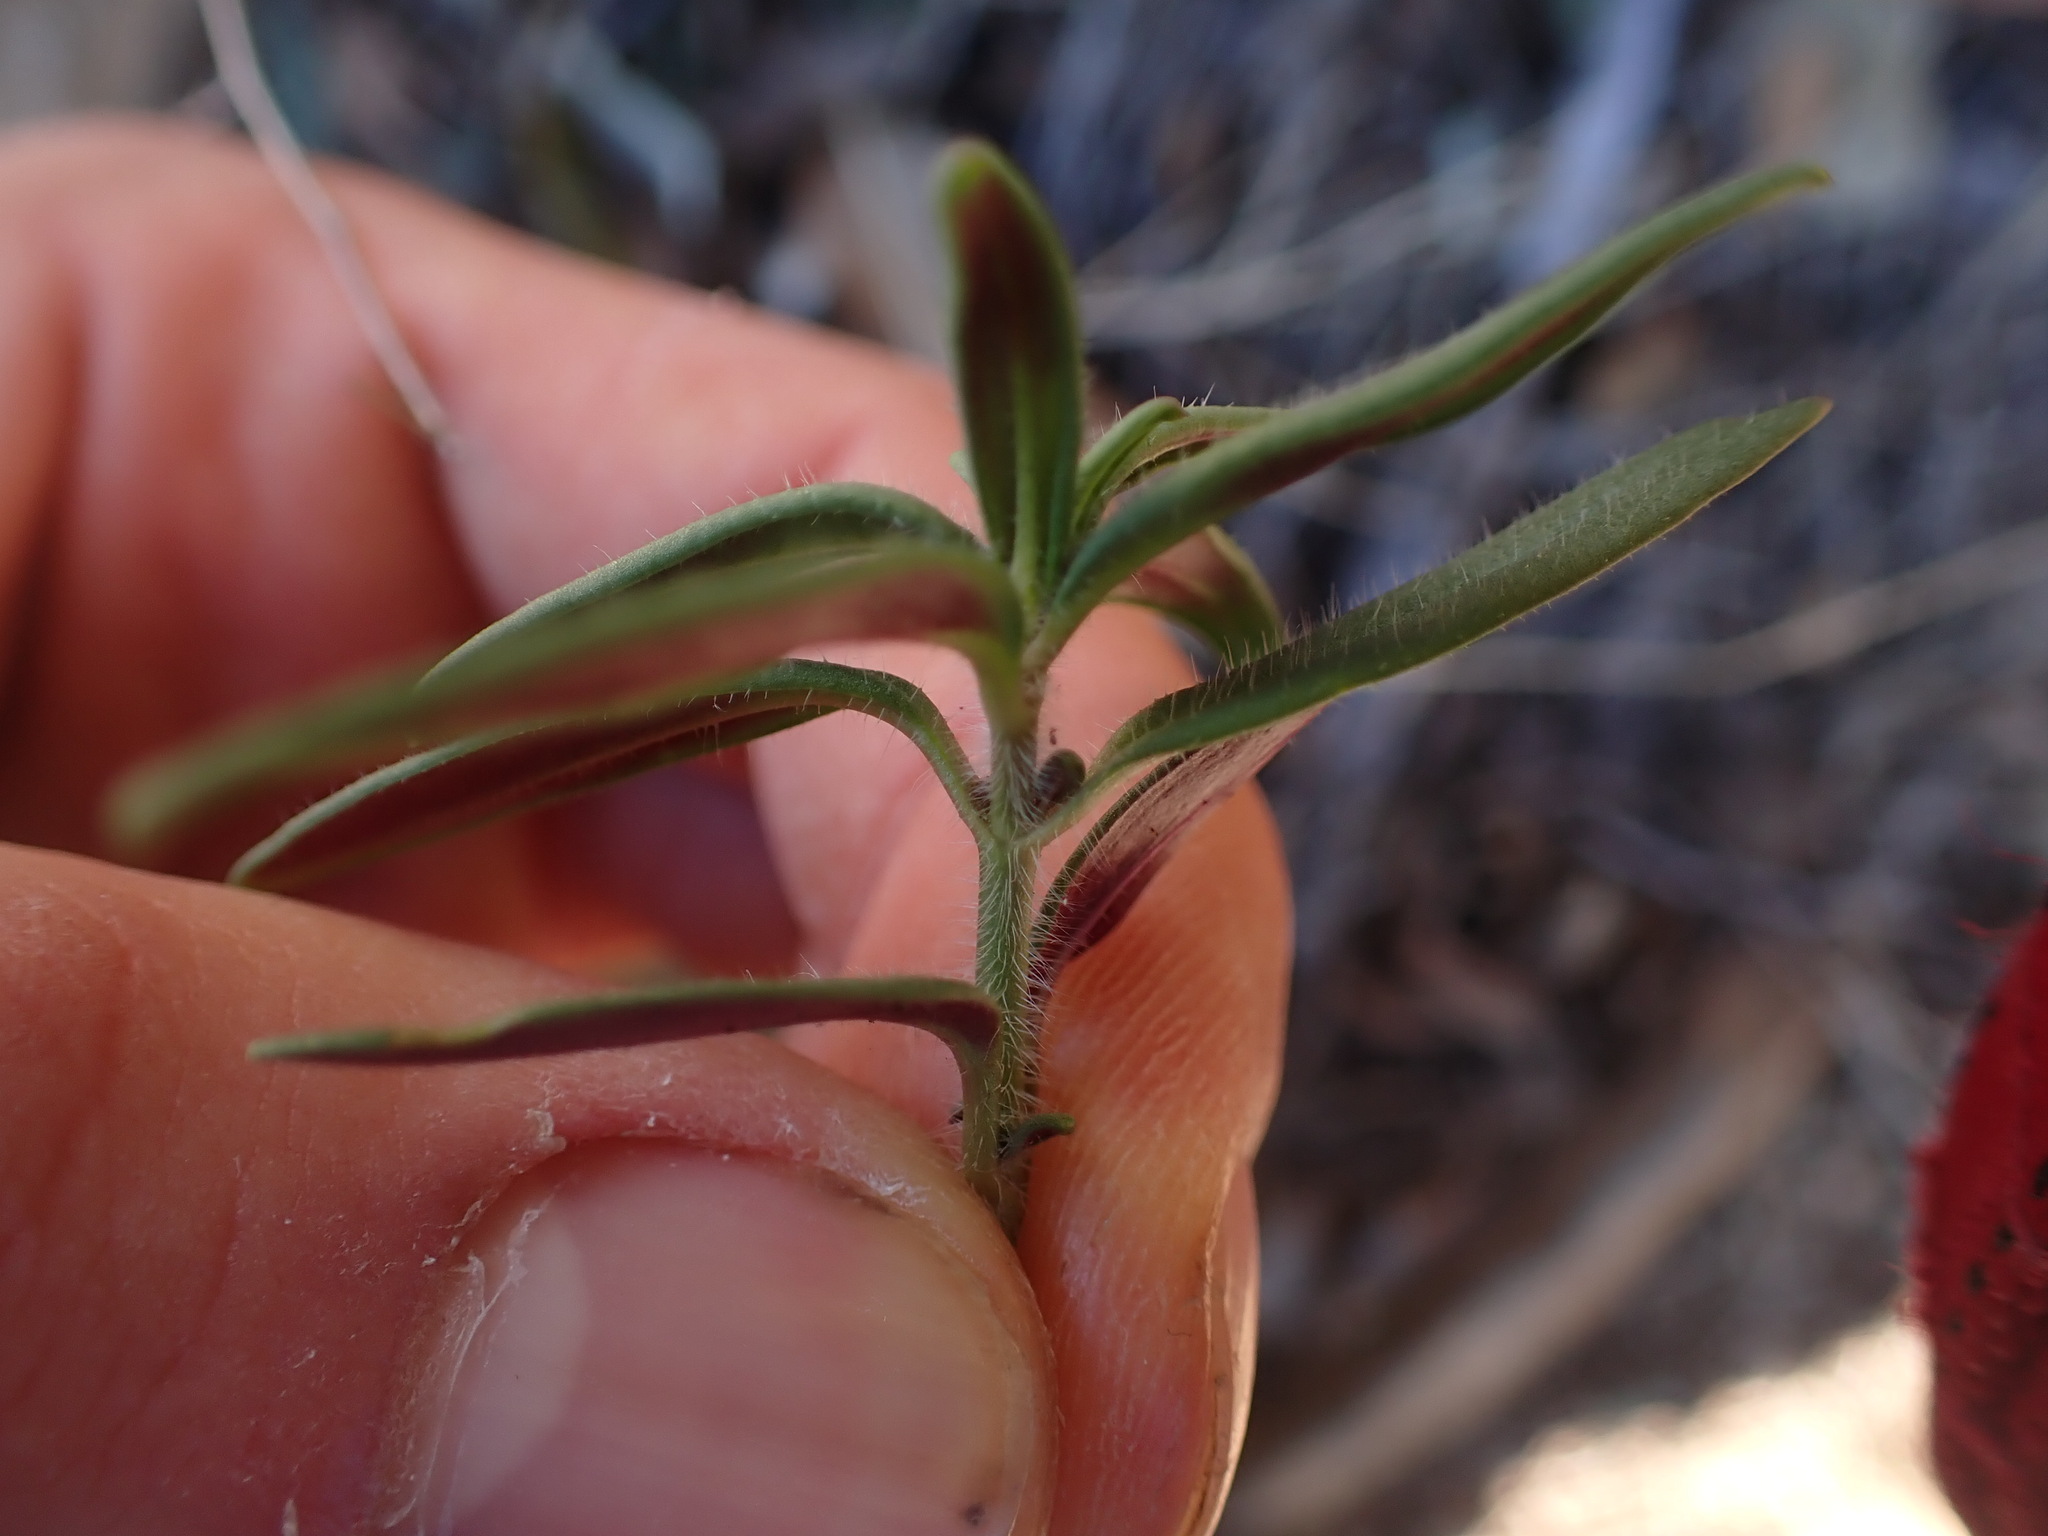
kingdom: Plantae
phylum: Tracheophyta
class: Magnoliopsida
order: Lamiales
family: Plantaginaceae
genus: Misopates
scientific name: Misopates orontium
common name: Weasel's-snout
